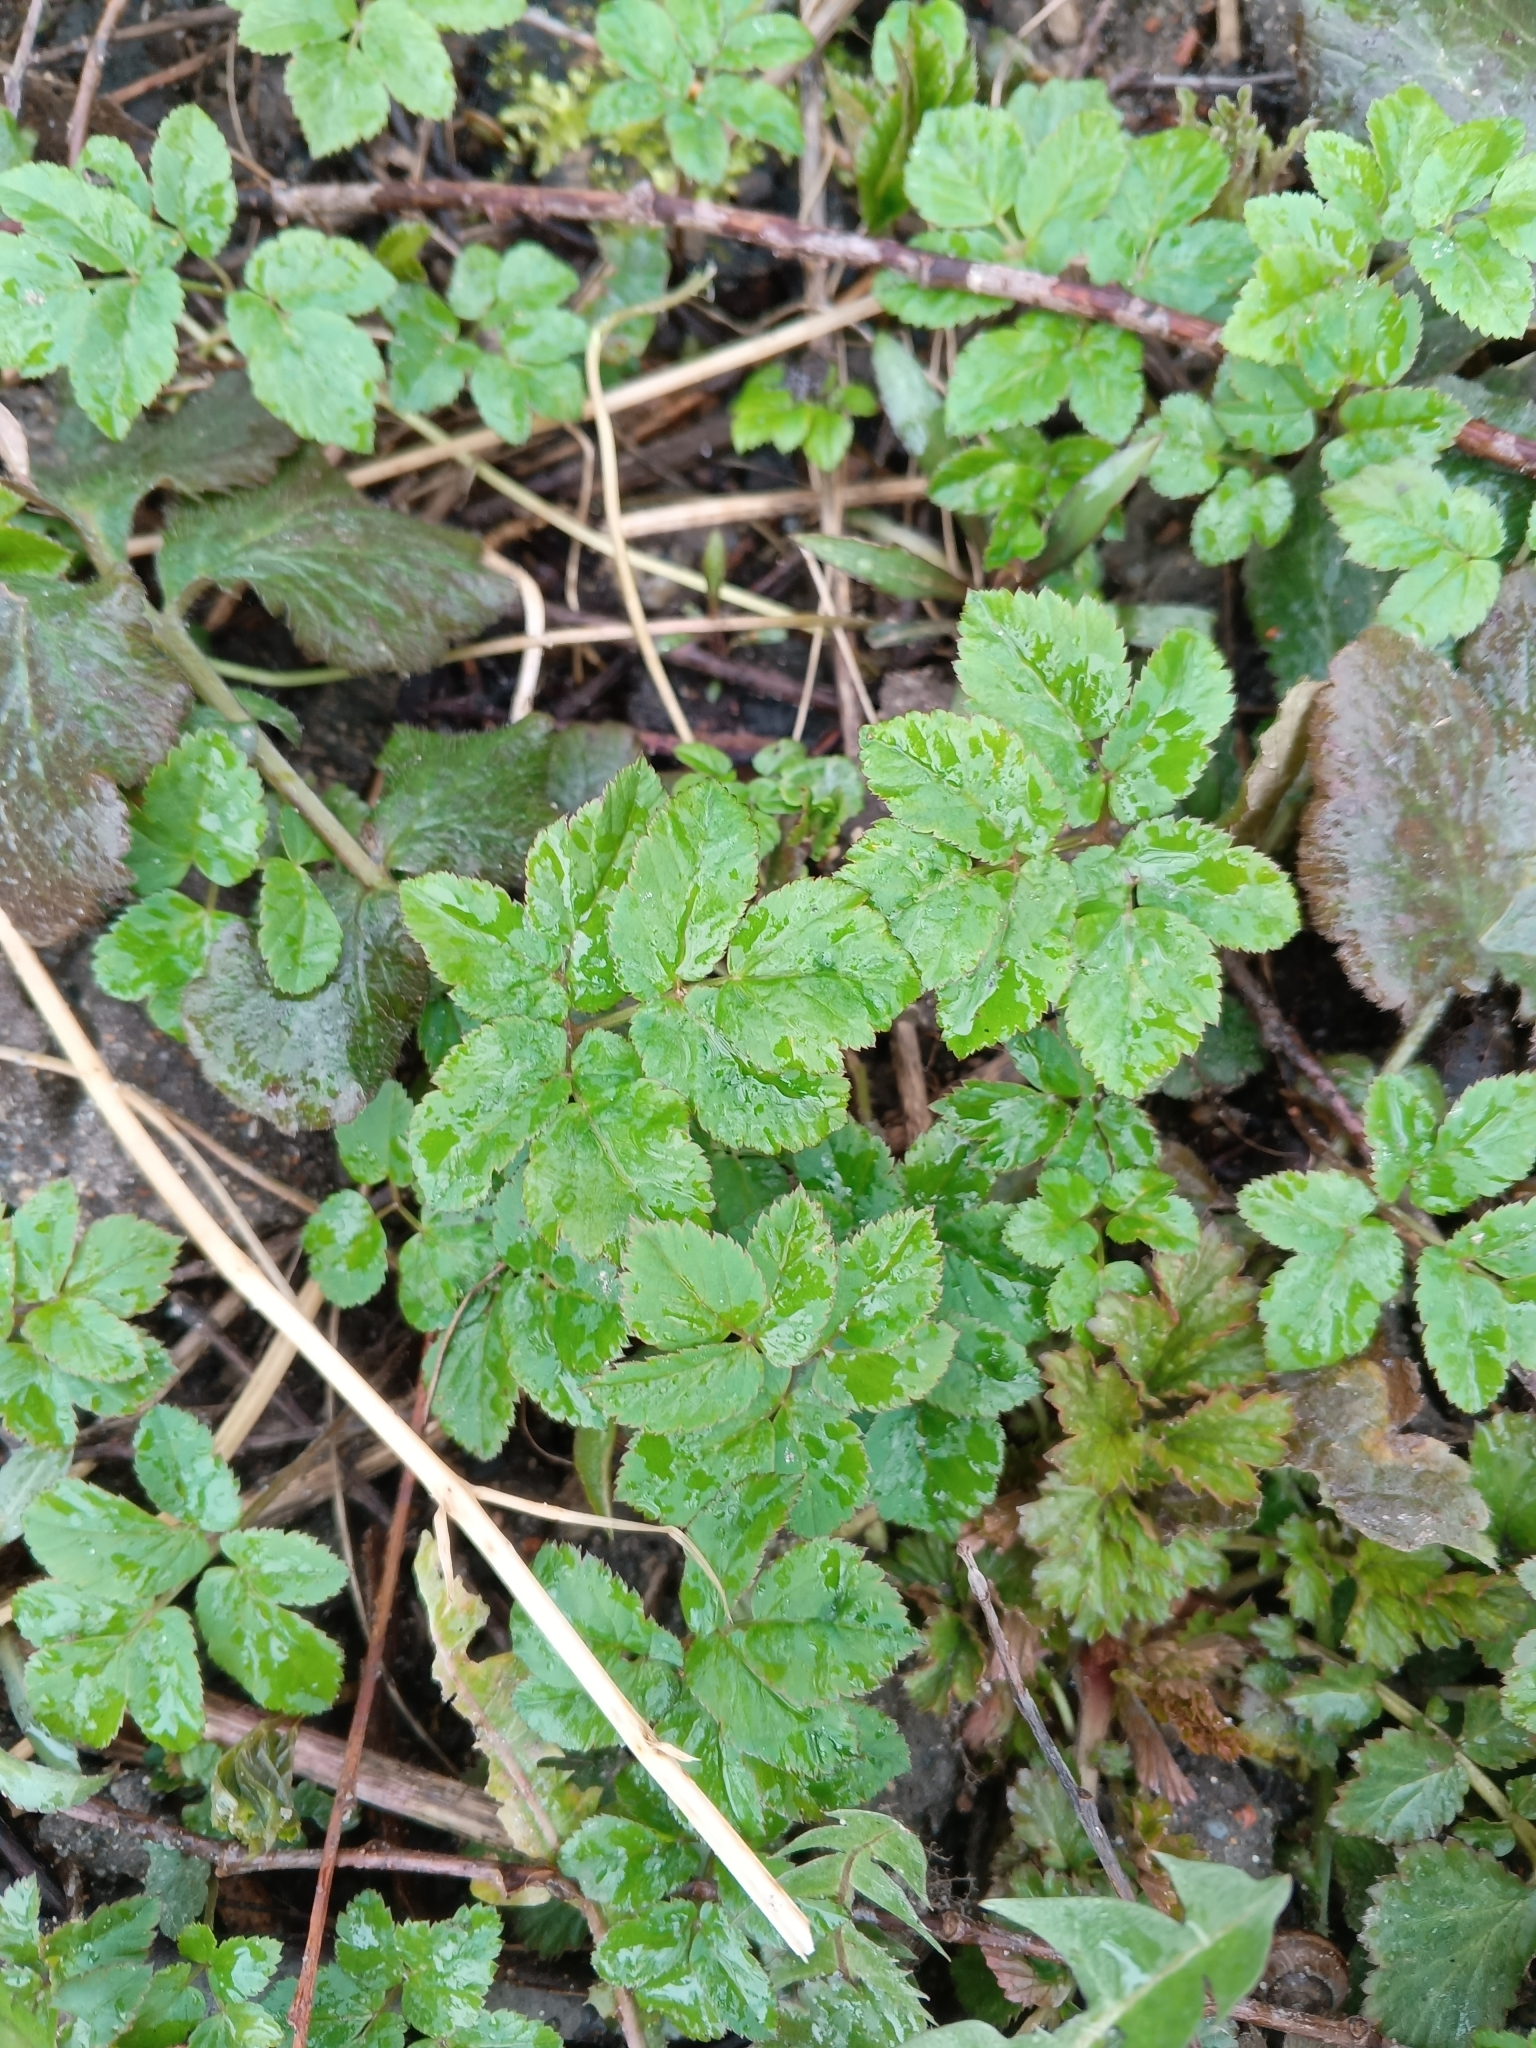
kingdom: Plantae
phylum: Tracheophyta
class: Magnoliopsida
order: Apiales
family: Apiaceae
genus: Aegopodium
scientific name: Aegopodium podagraria
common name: Ground-elder
